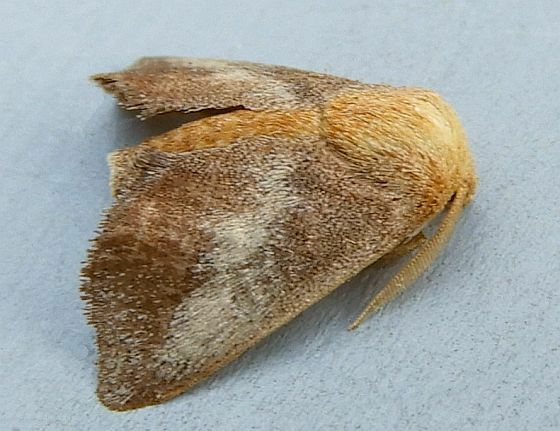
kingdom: Animalia
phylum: Arthropoda
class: Insecta
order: Lepidoptera
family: Limacodidae
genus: Isa
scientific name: Isa textula
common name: Crowned slug moth
